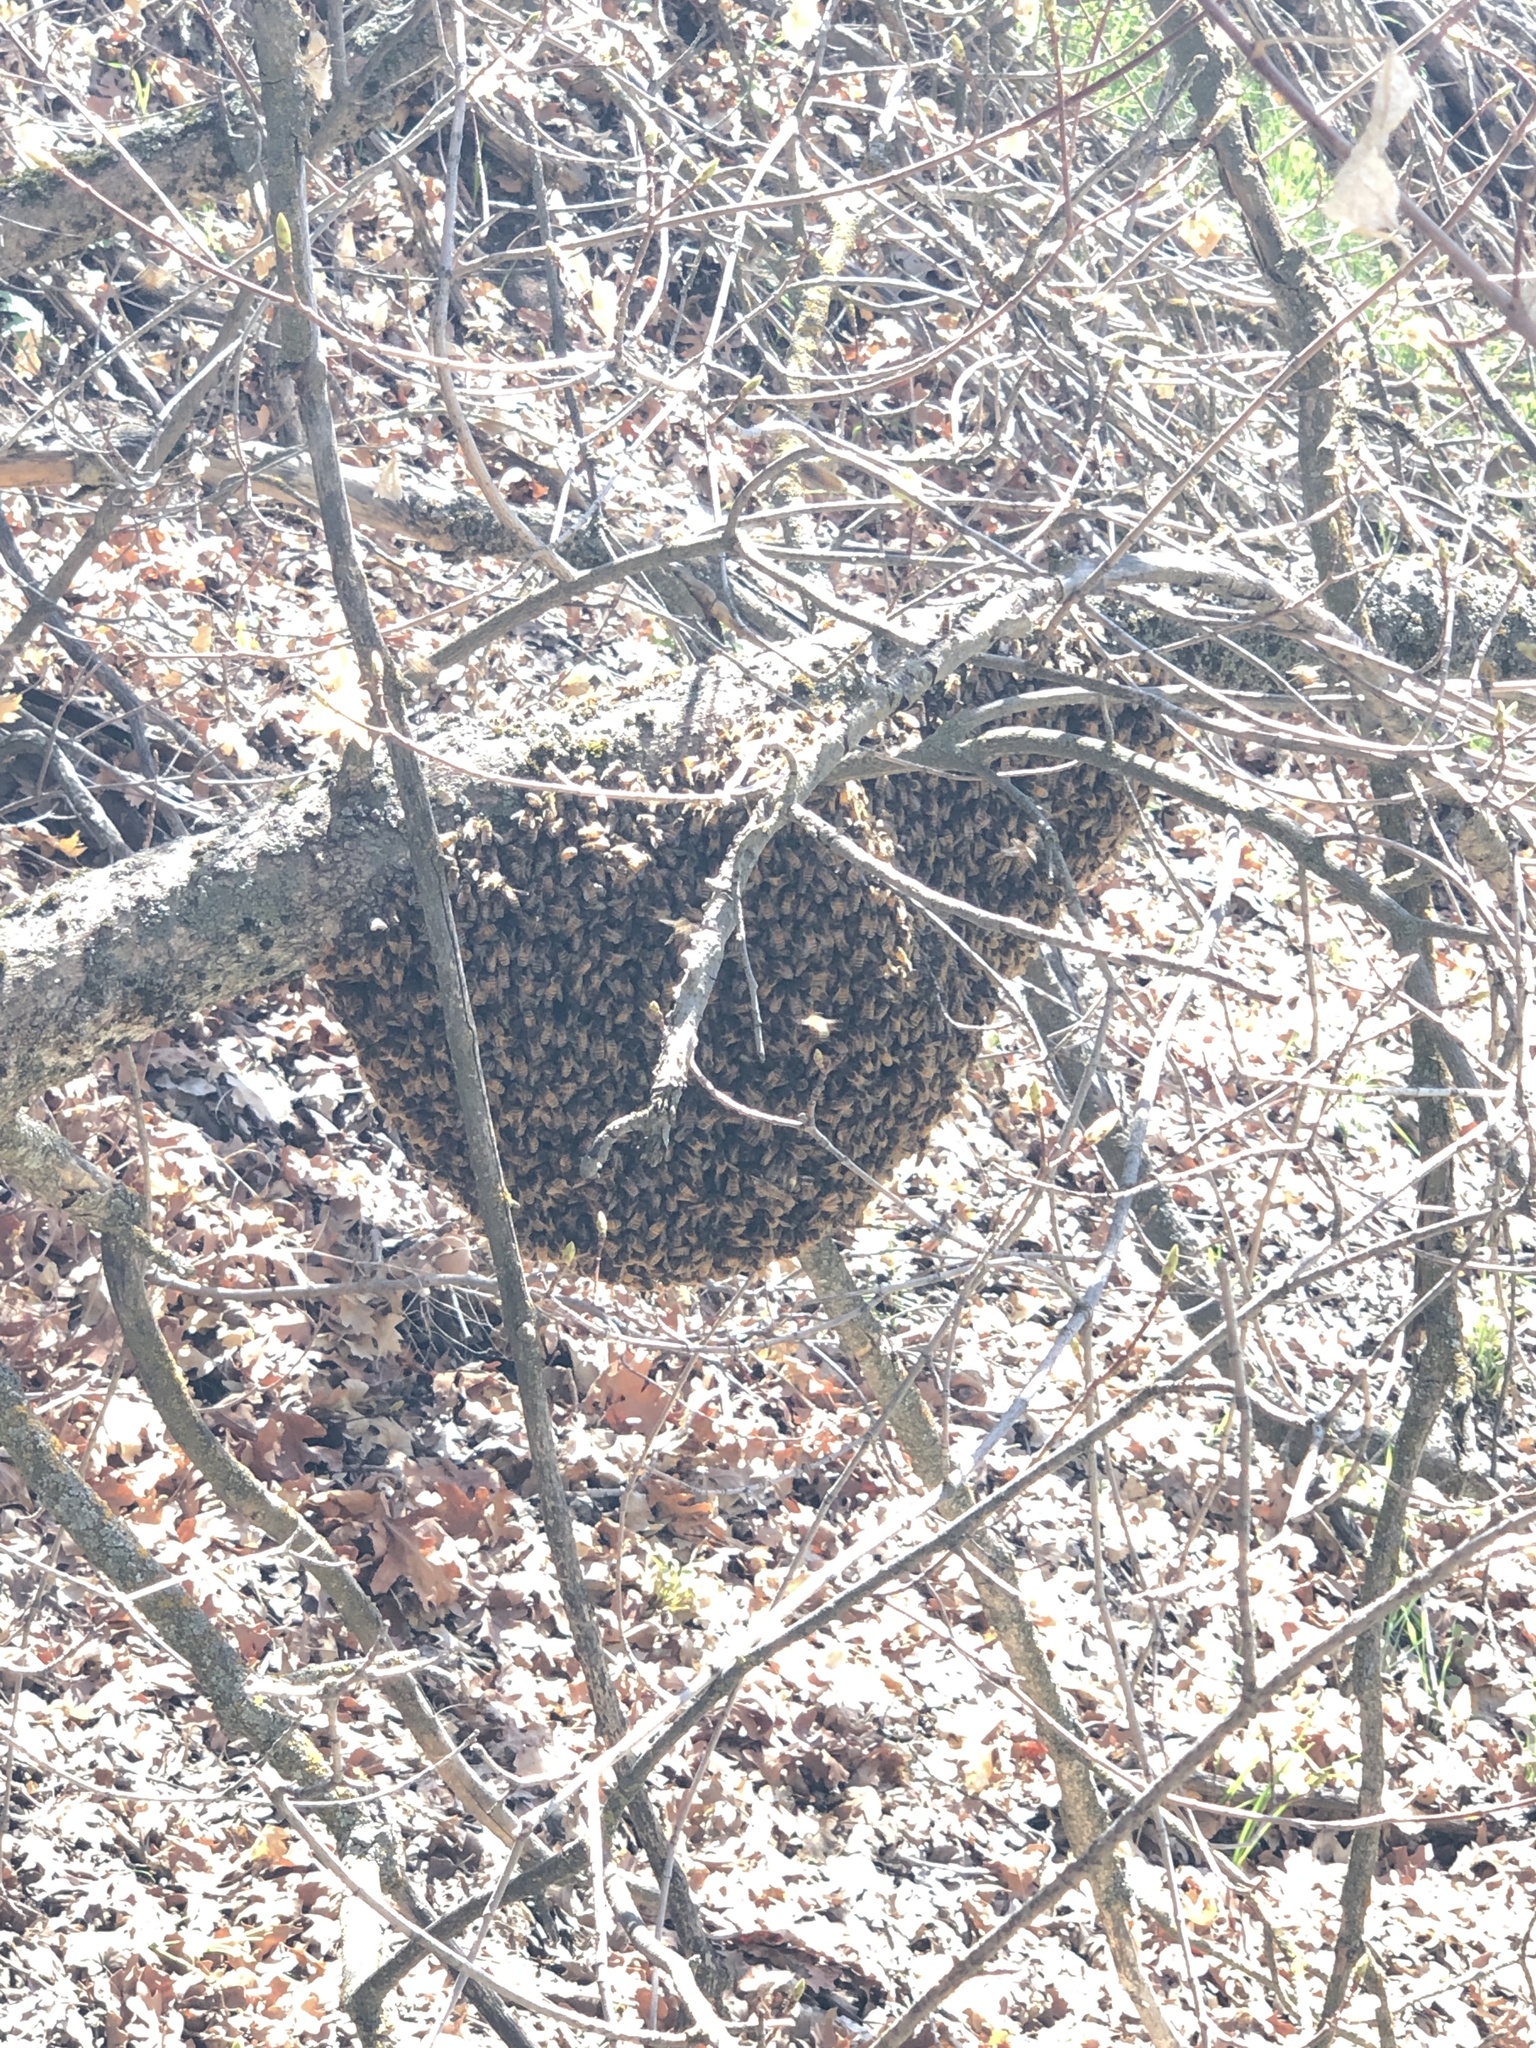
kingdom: Animalia
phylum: Arthropoda
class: Insecta
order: Hymenoptera
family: Apidae
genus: Apis
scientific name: Apis mellifera
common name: Honey bee
